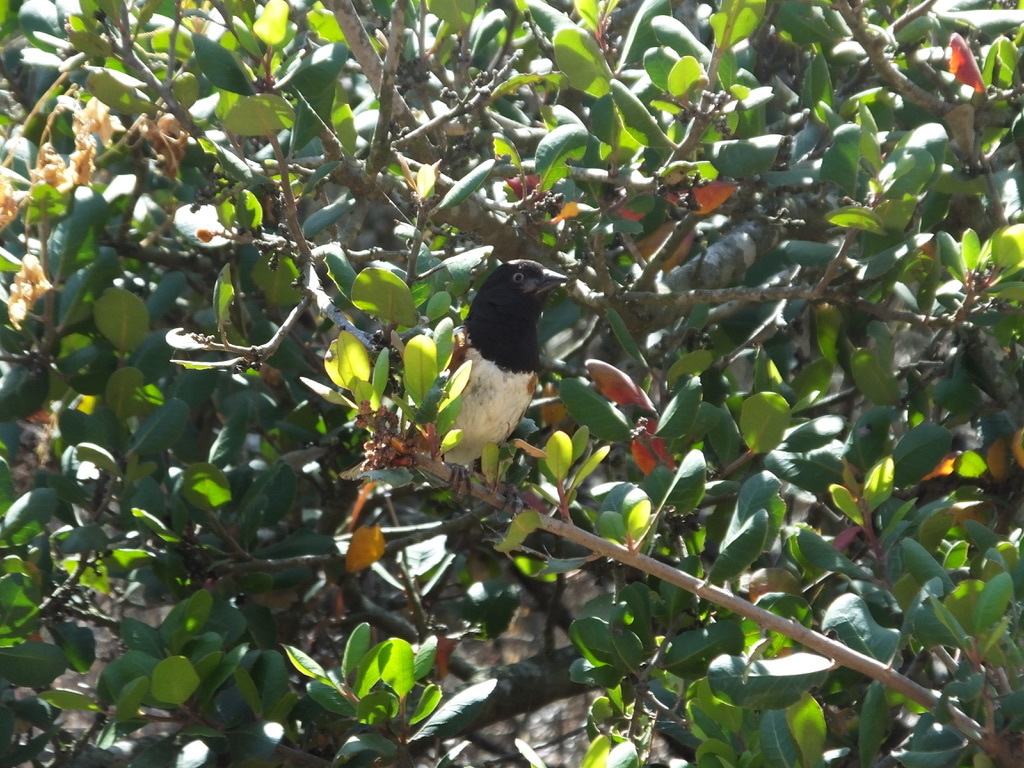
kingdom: Animalia
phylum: Chordata
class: Aves
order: Passeriformes
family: Passerellidae
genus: Pipilo
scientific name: Pipilo maculatus
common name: Spotted towhee
